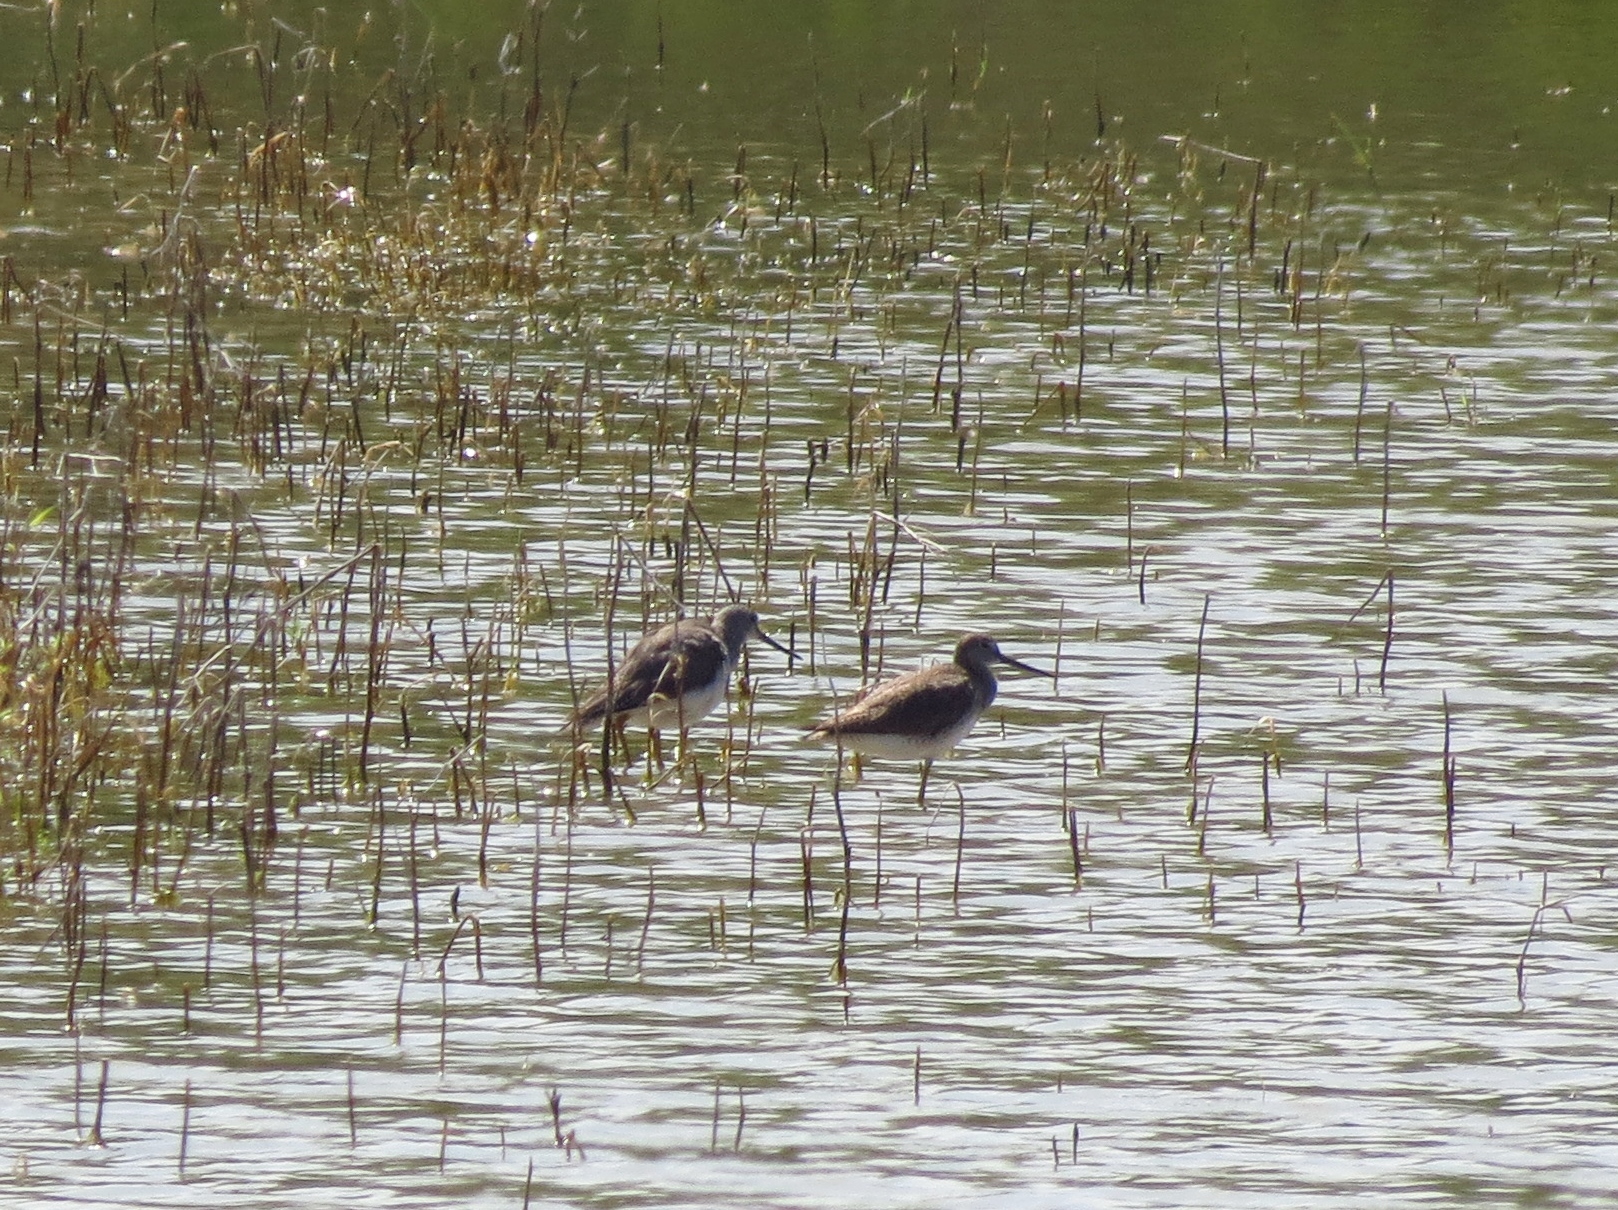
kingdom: Animalia
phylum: Chordata
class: Aves
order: Charadriiformes
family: Scolopacidae
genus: Tringa
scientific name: Tringa melanoleuca
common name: Greater yellowlegs
